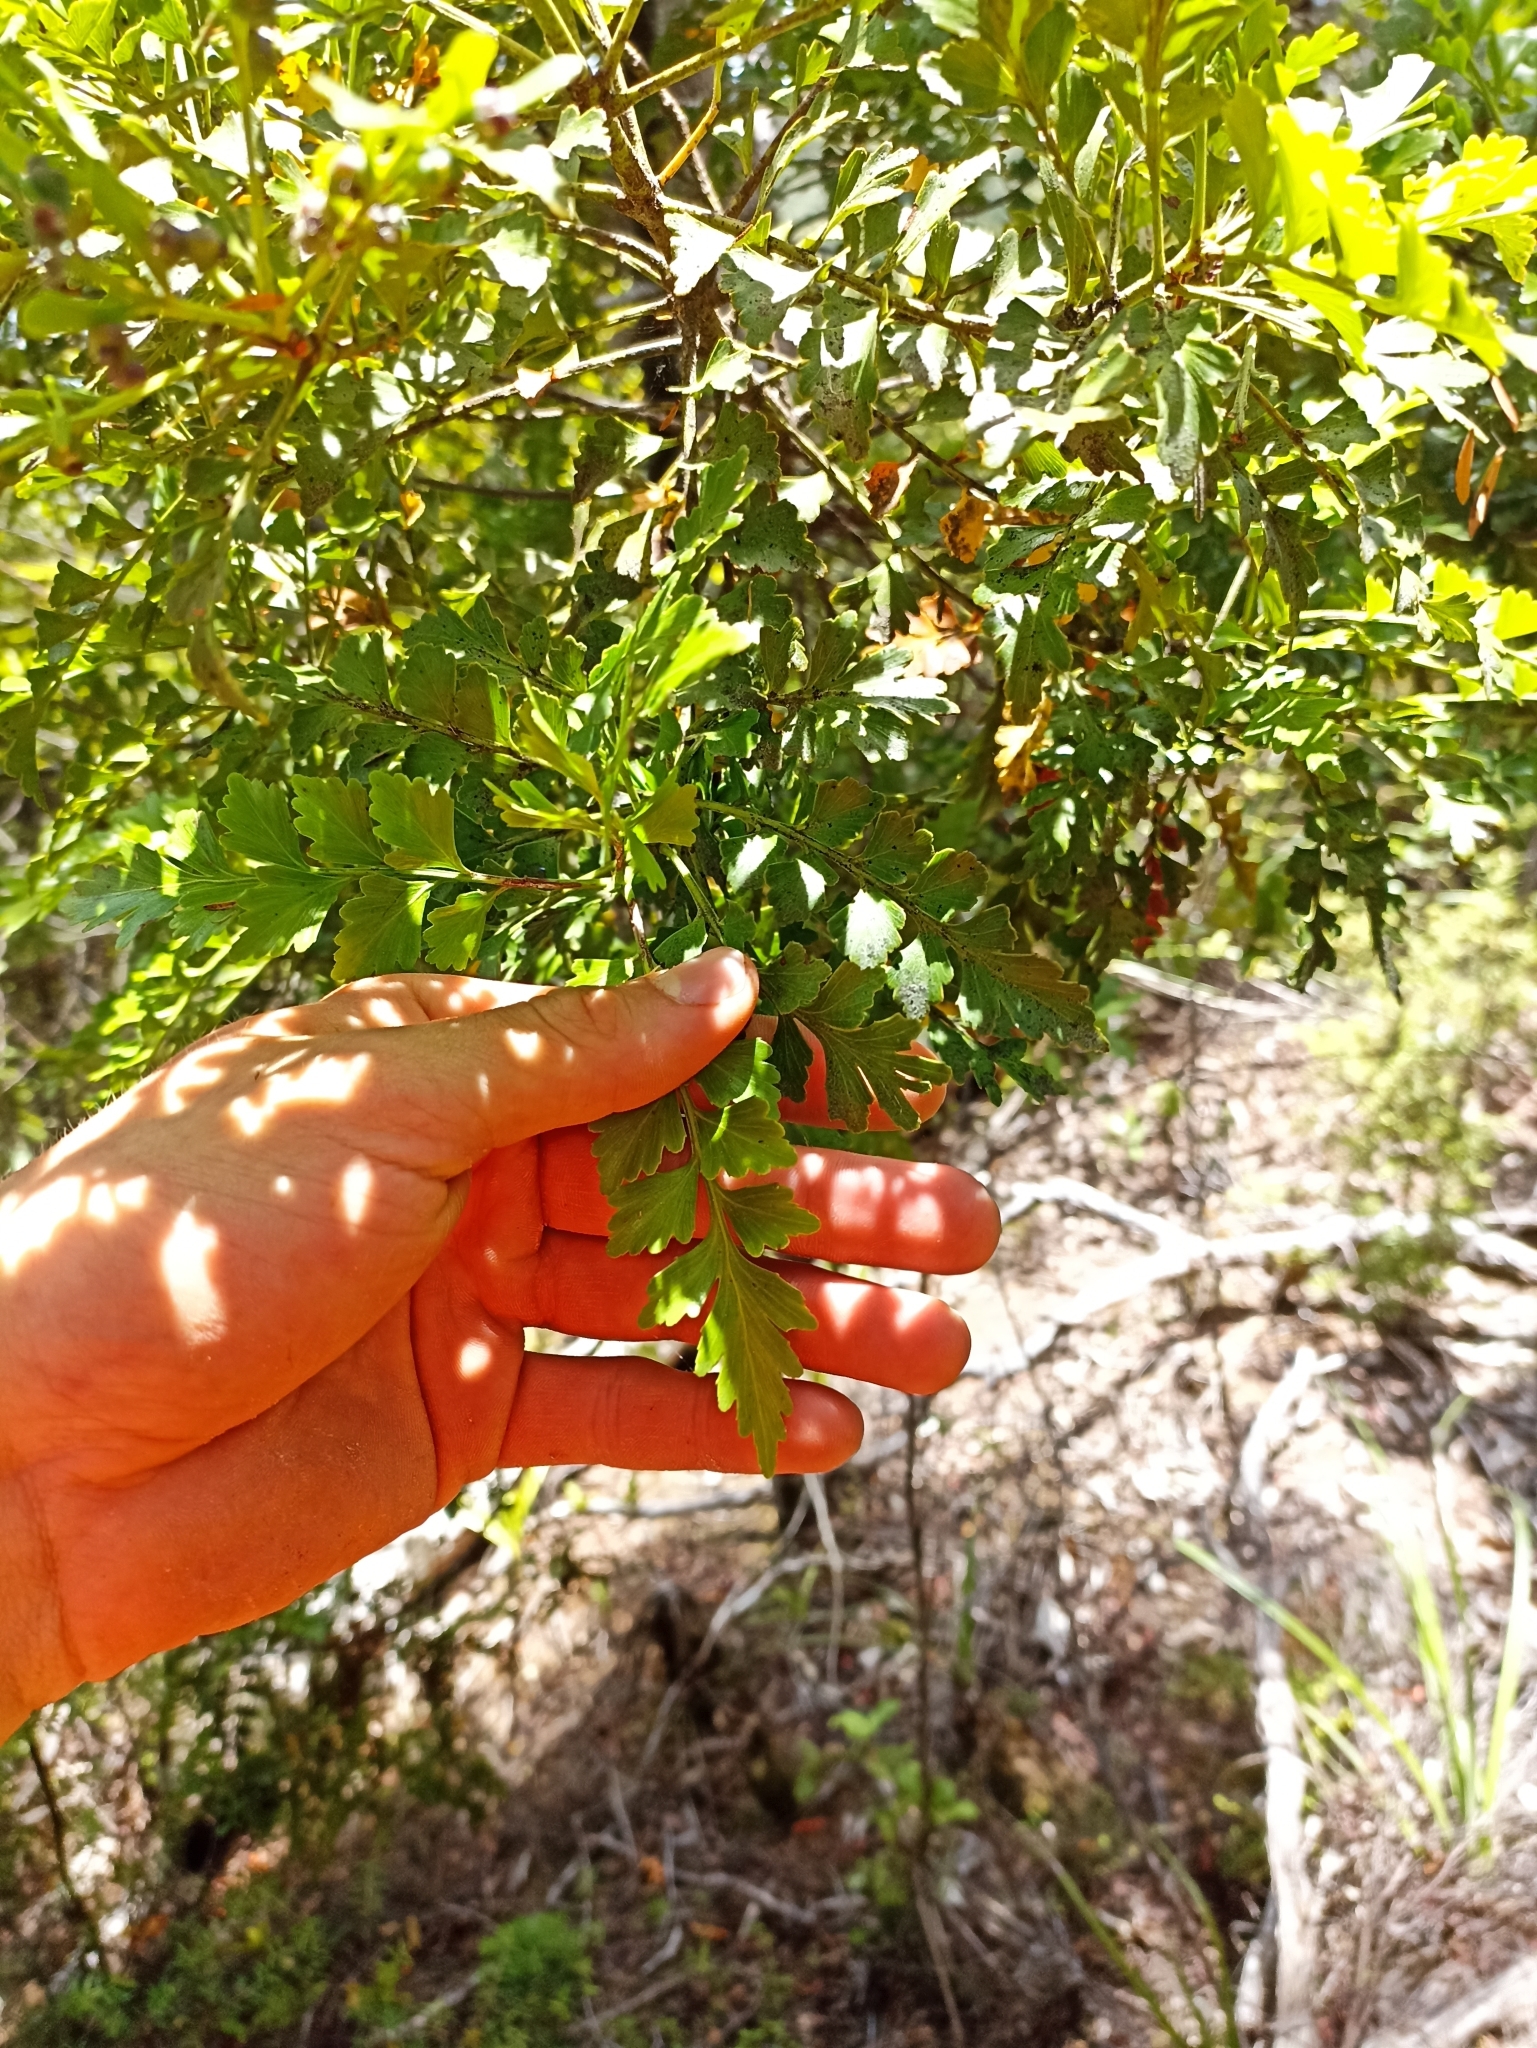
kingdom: Plantae
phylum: Tracheophyta
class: Pinopsida
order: Pinales
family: Phyllocladaceae
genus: Phyllocladus
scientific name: Phyllocladus toatoa
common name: Celery-top pine
